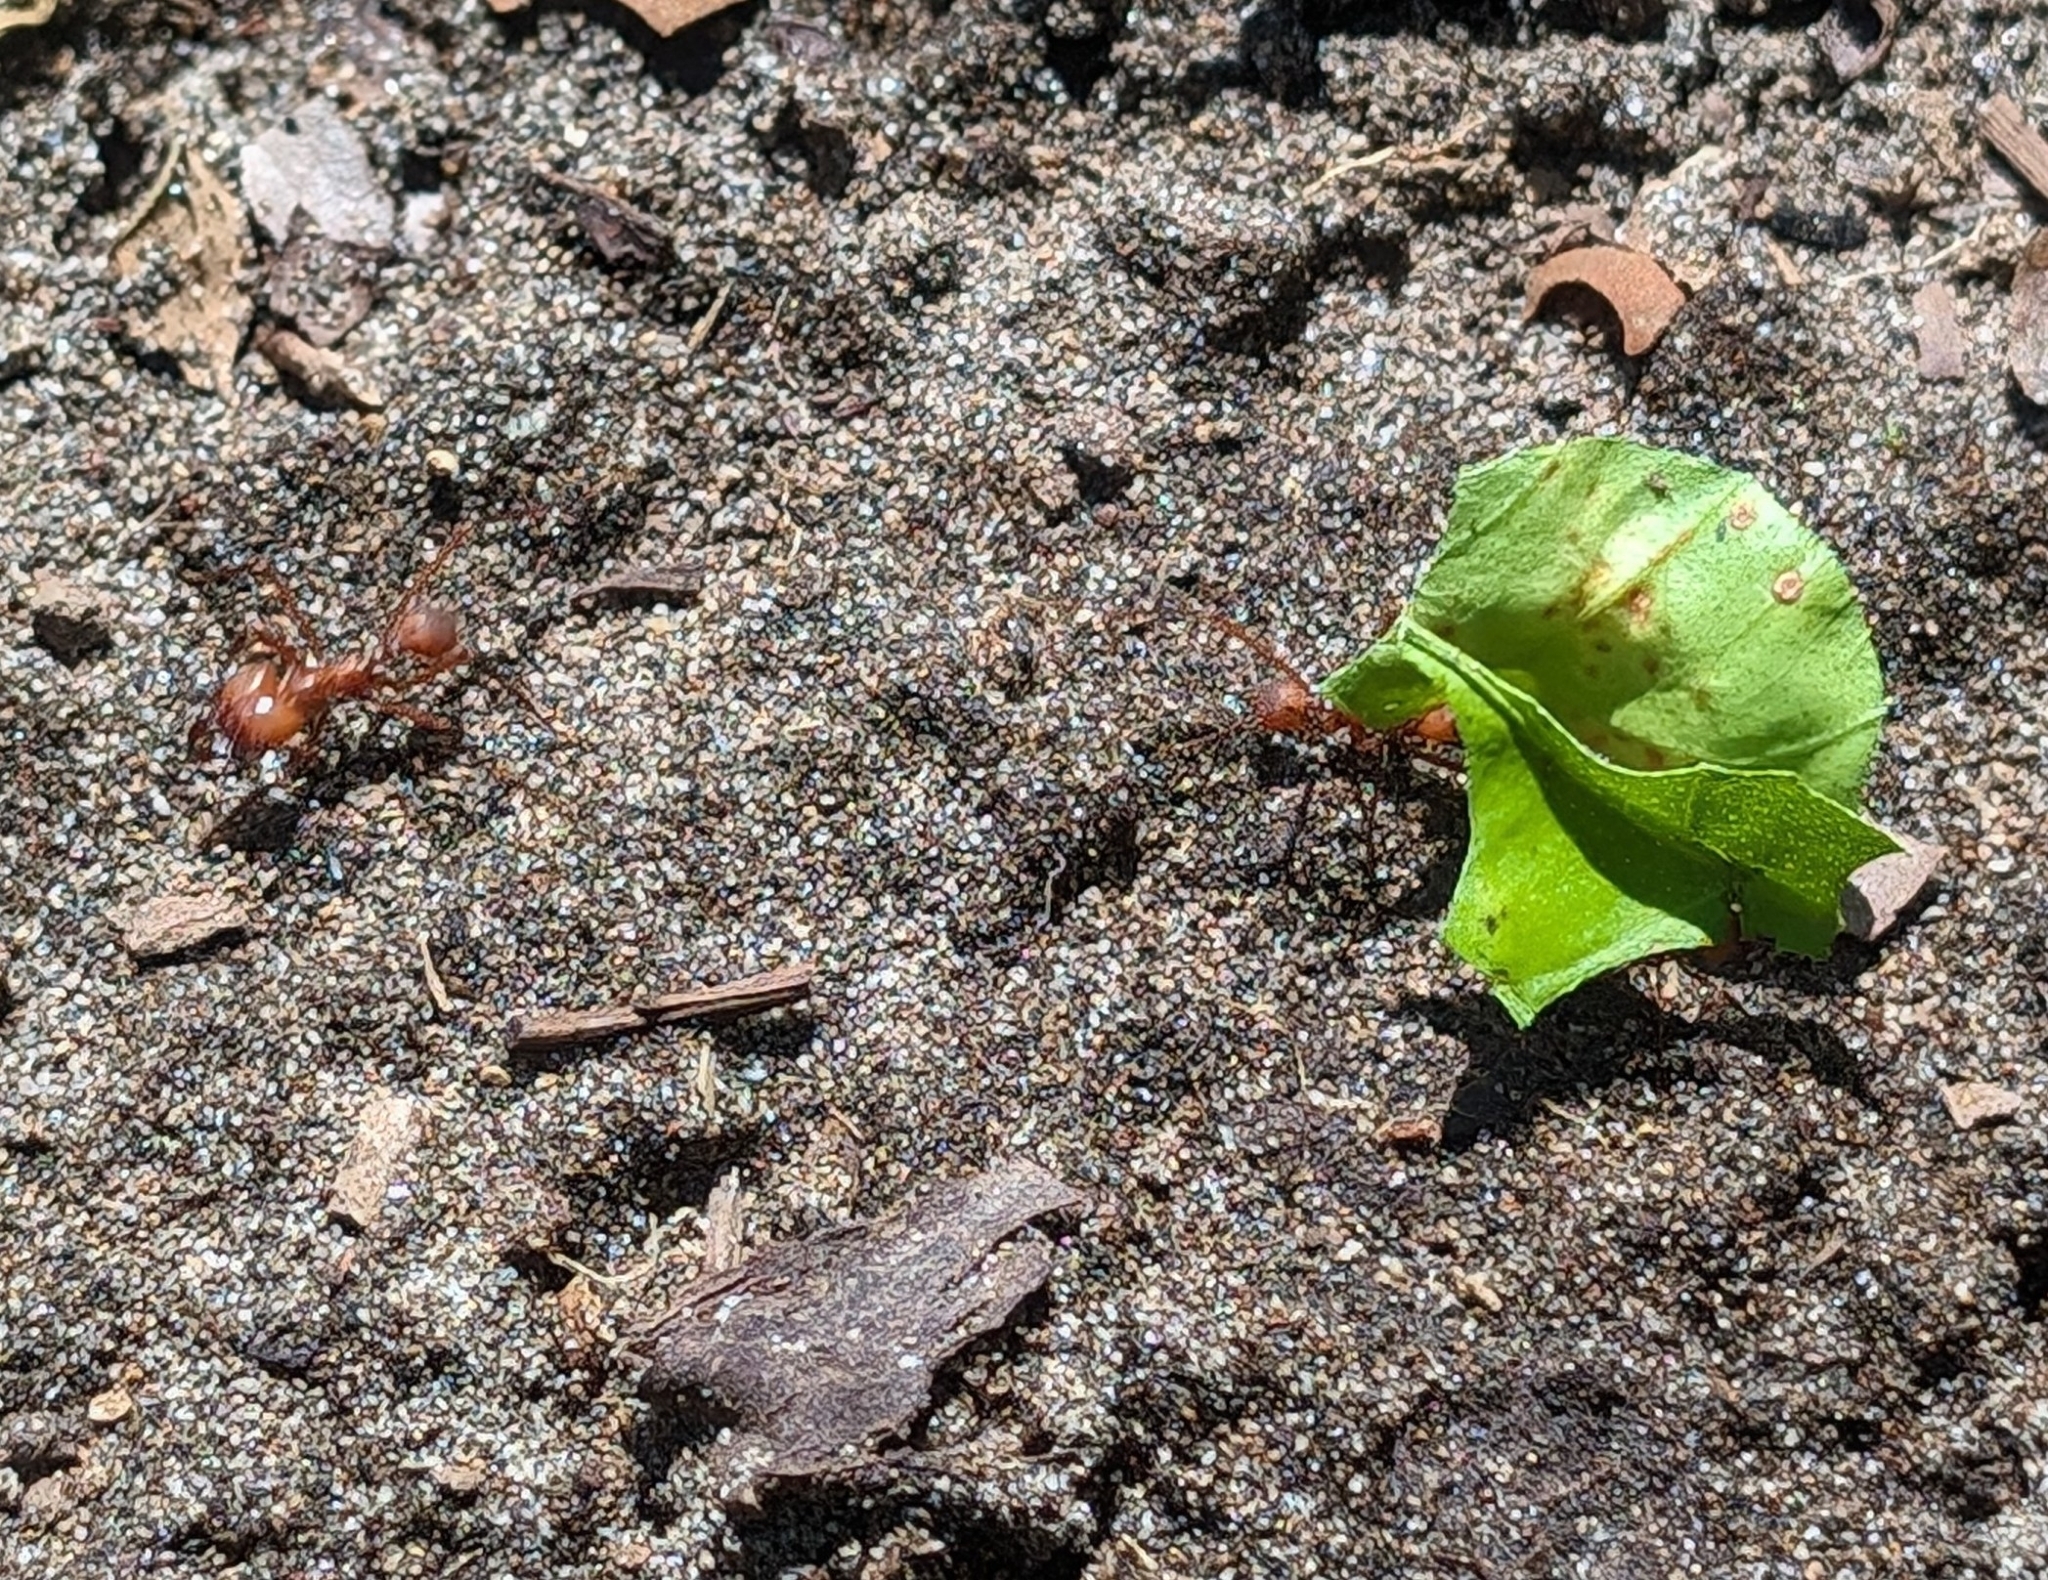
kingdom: Animalia
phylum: Arthropoda
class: Insecta
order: Hymenoptera
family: Formicidae
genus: Atta
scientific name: Atta cephalotes
